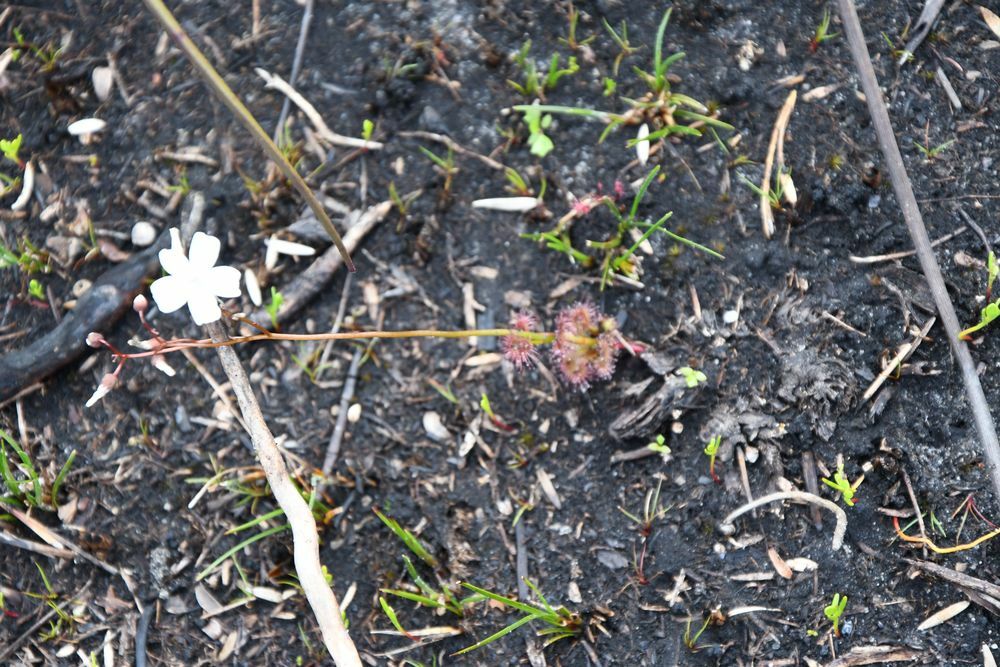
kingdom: Plantae
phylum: Tracheophyta
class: Magnoliopsida
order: Caryophyllales
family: Droseraceae
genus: Drosera
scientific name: Drosera platypoda
